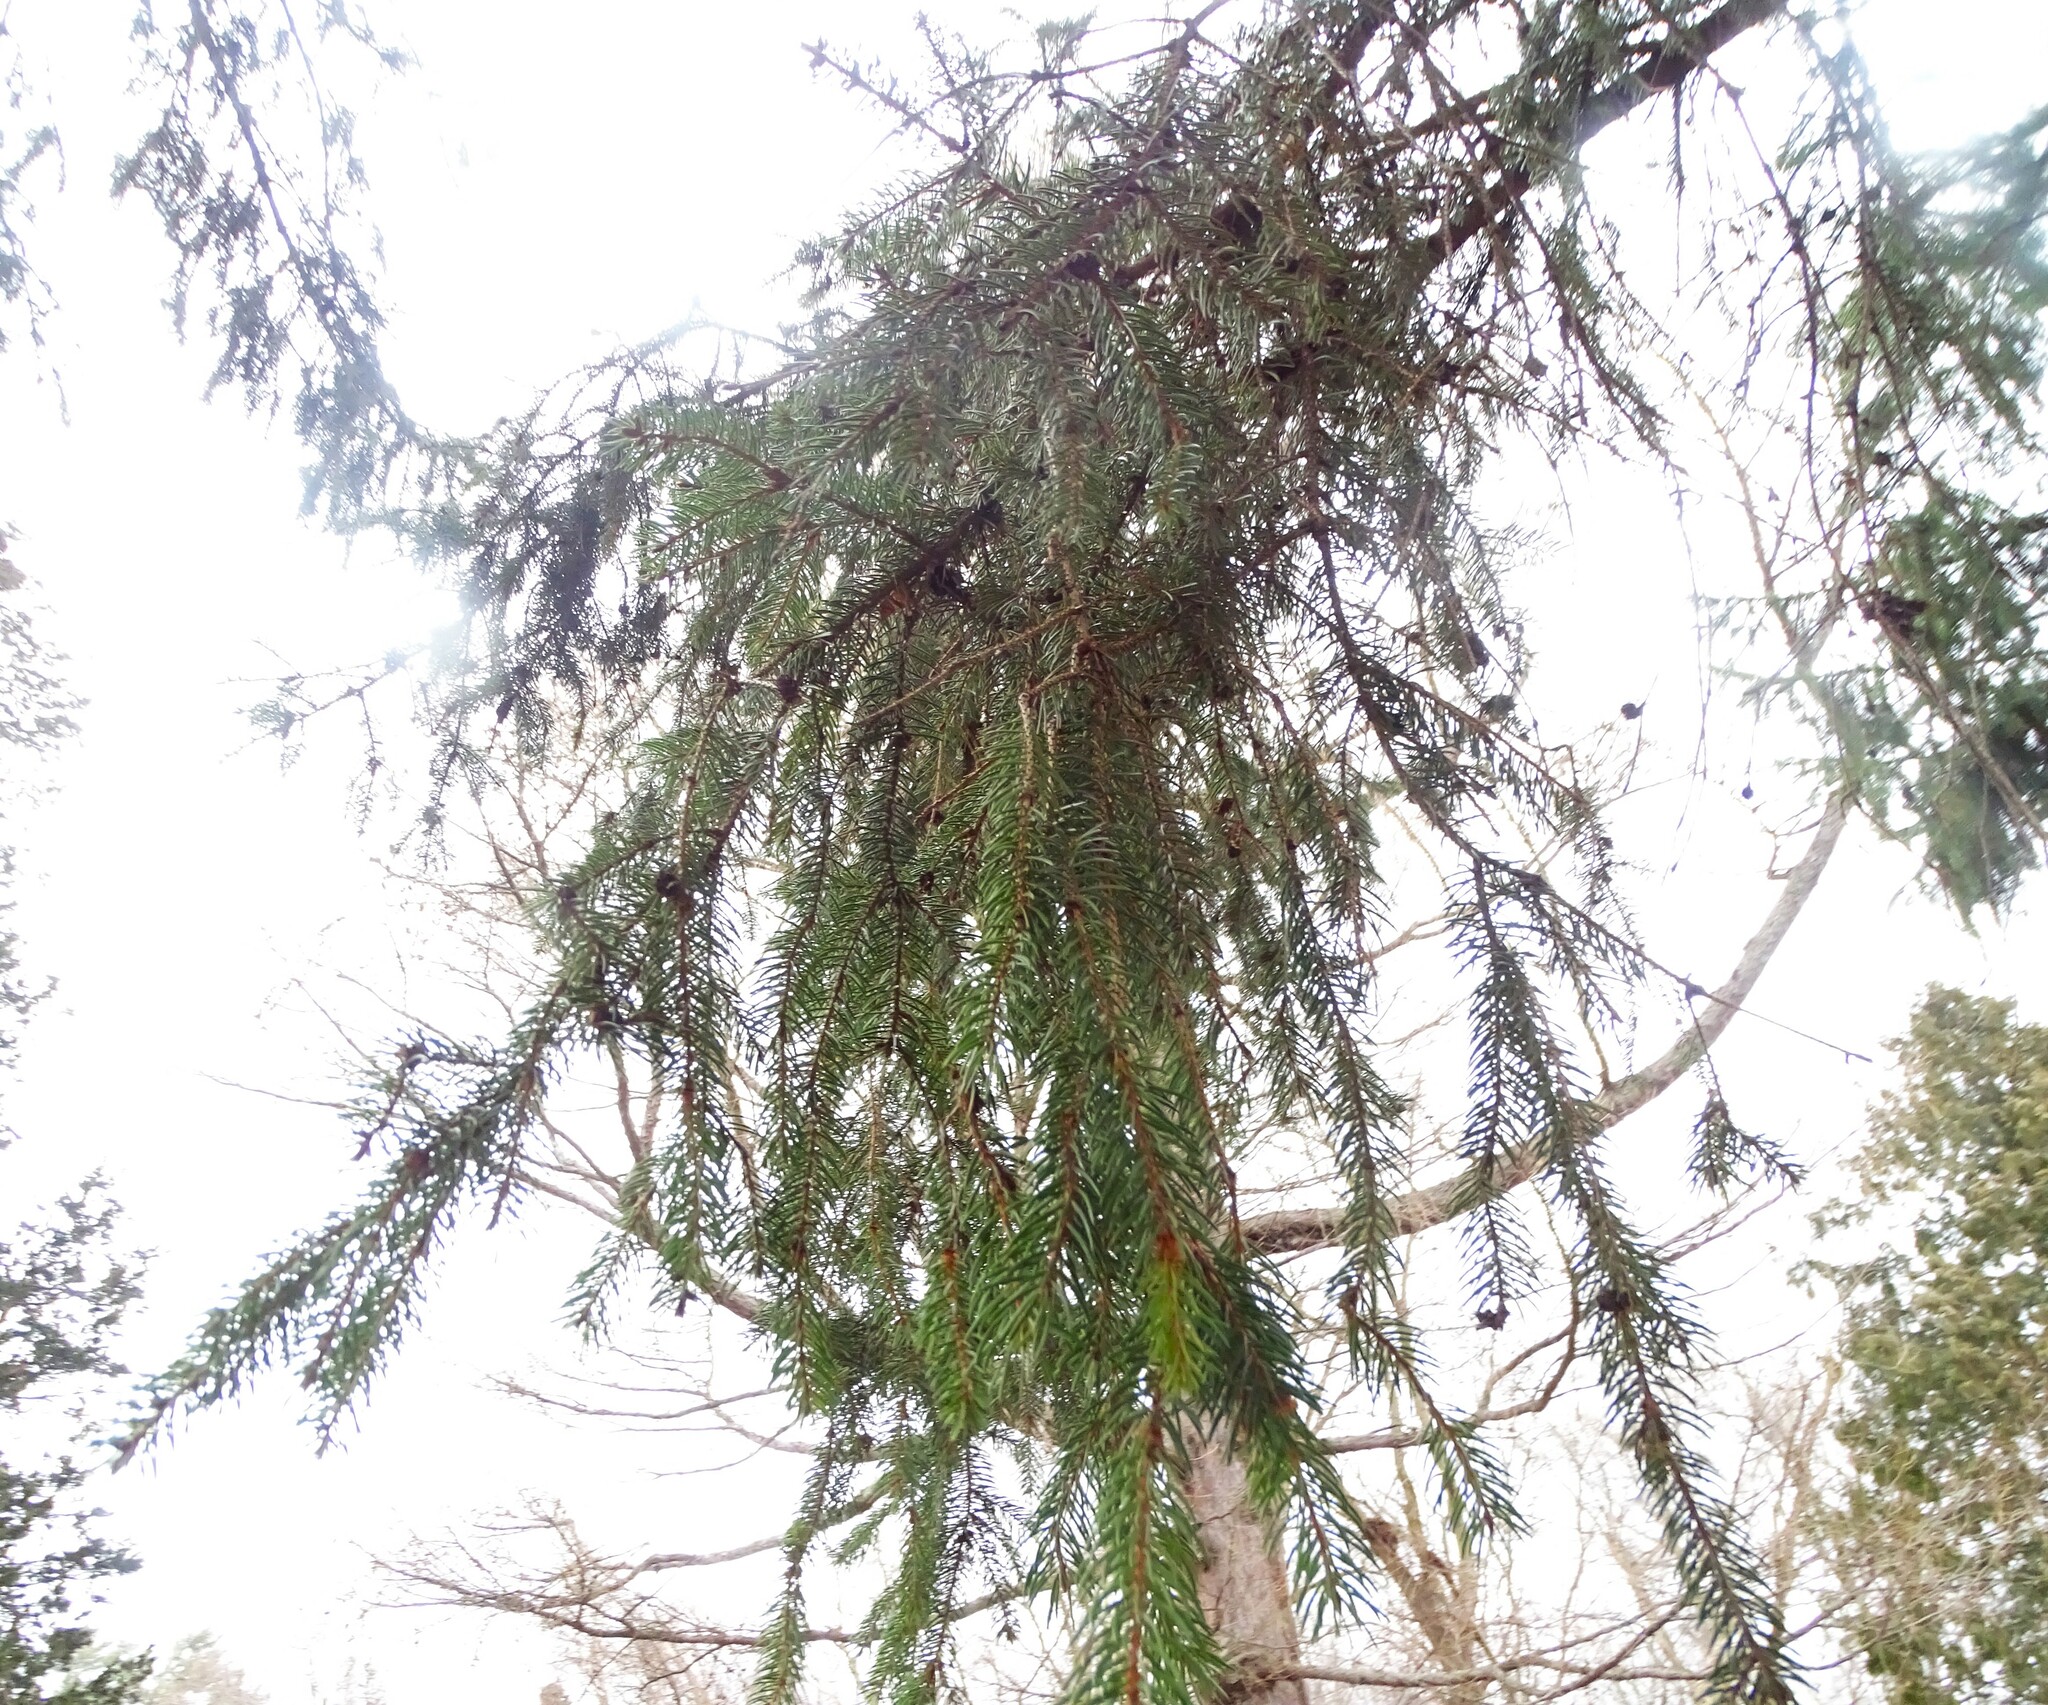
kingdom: Plantae
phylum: Tracheophyta
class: Pinopsida
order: Pinales
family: Pinaceae
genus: Picea
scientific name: Picea abies
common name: Norway spruce
